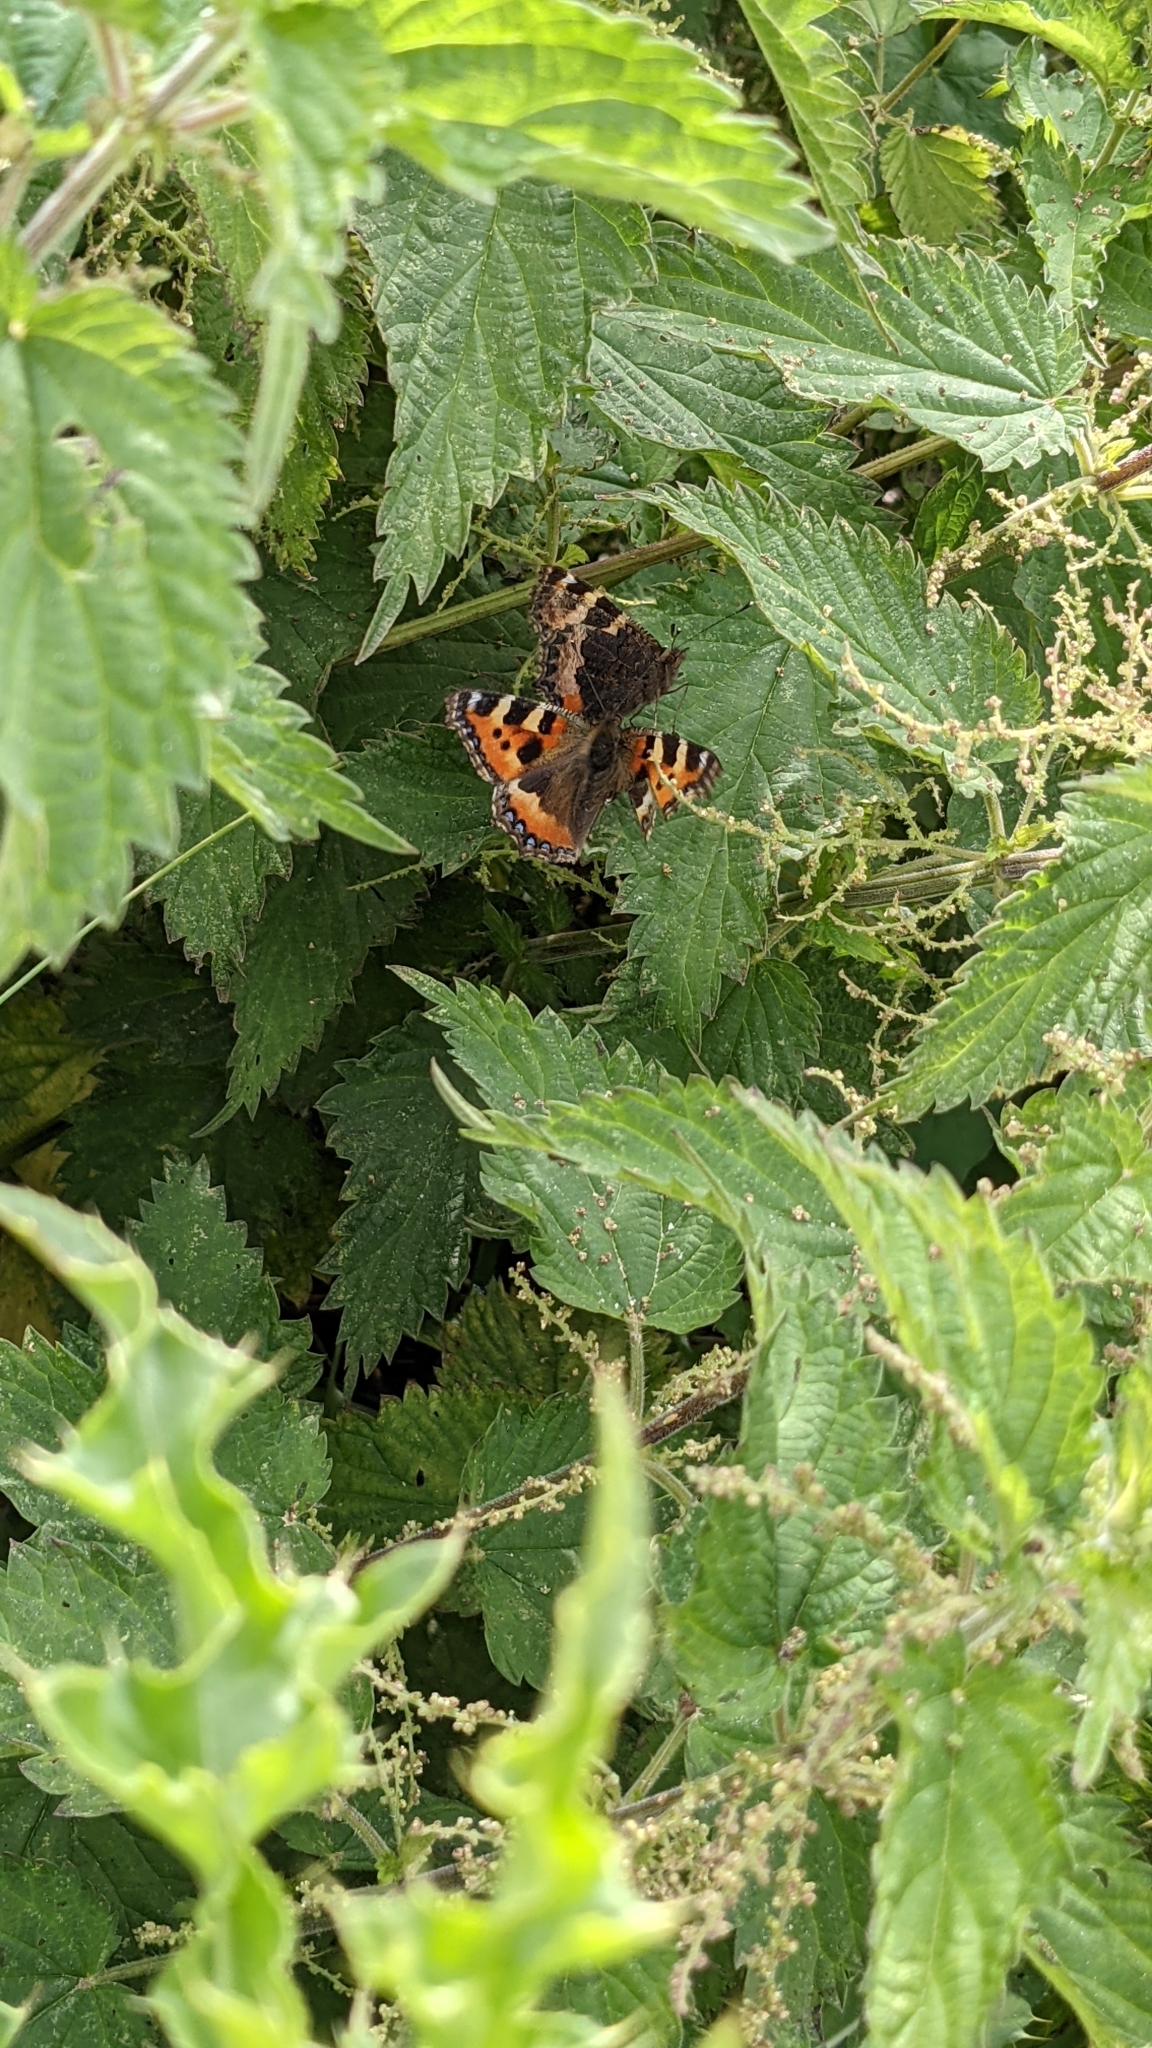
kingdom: Animalia
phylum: Arthropoda
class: Insecta
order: Lepidoptera
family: Nymphalidae
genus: Aglais
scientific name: Aglais urticae
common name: Small tortoiseshell
